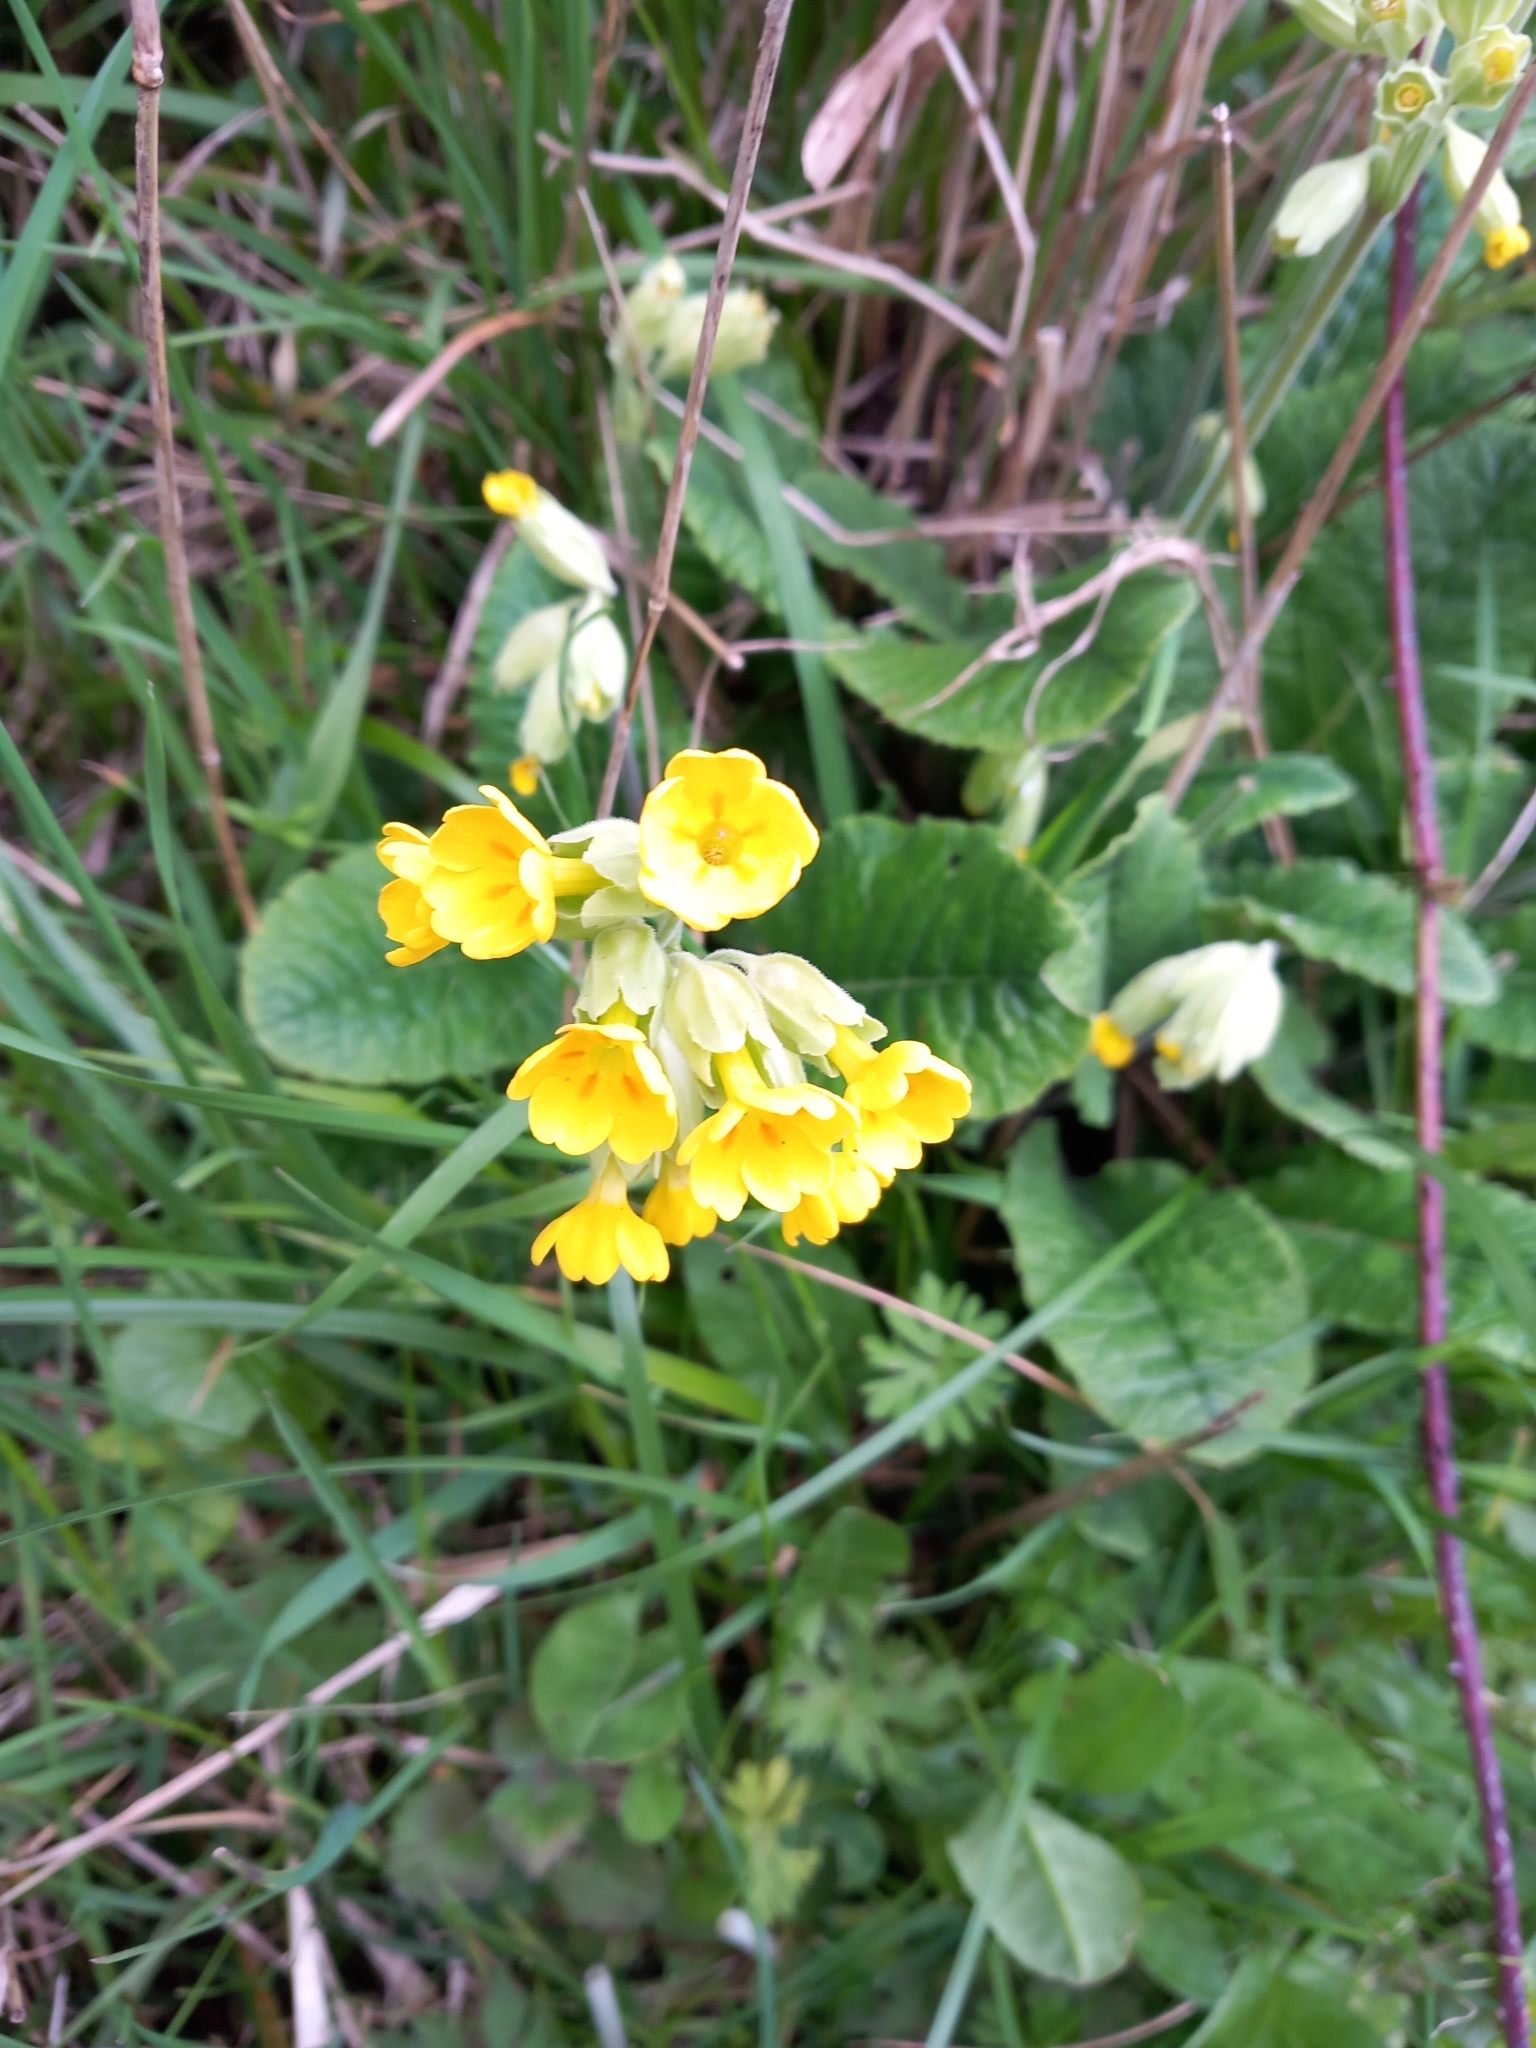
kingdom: Plantae
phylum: Tracheophyta
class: Magnoliopsida
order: Ericales
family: Primulaceae
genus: Primula
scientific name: Primula veris
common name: Cowslip
